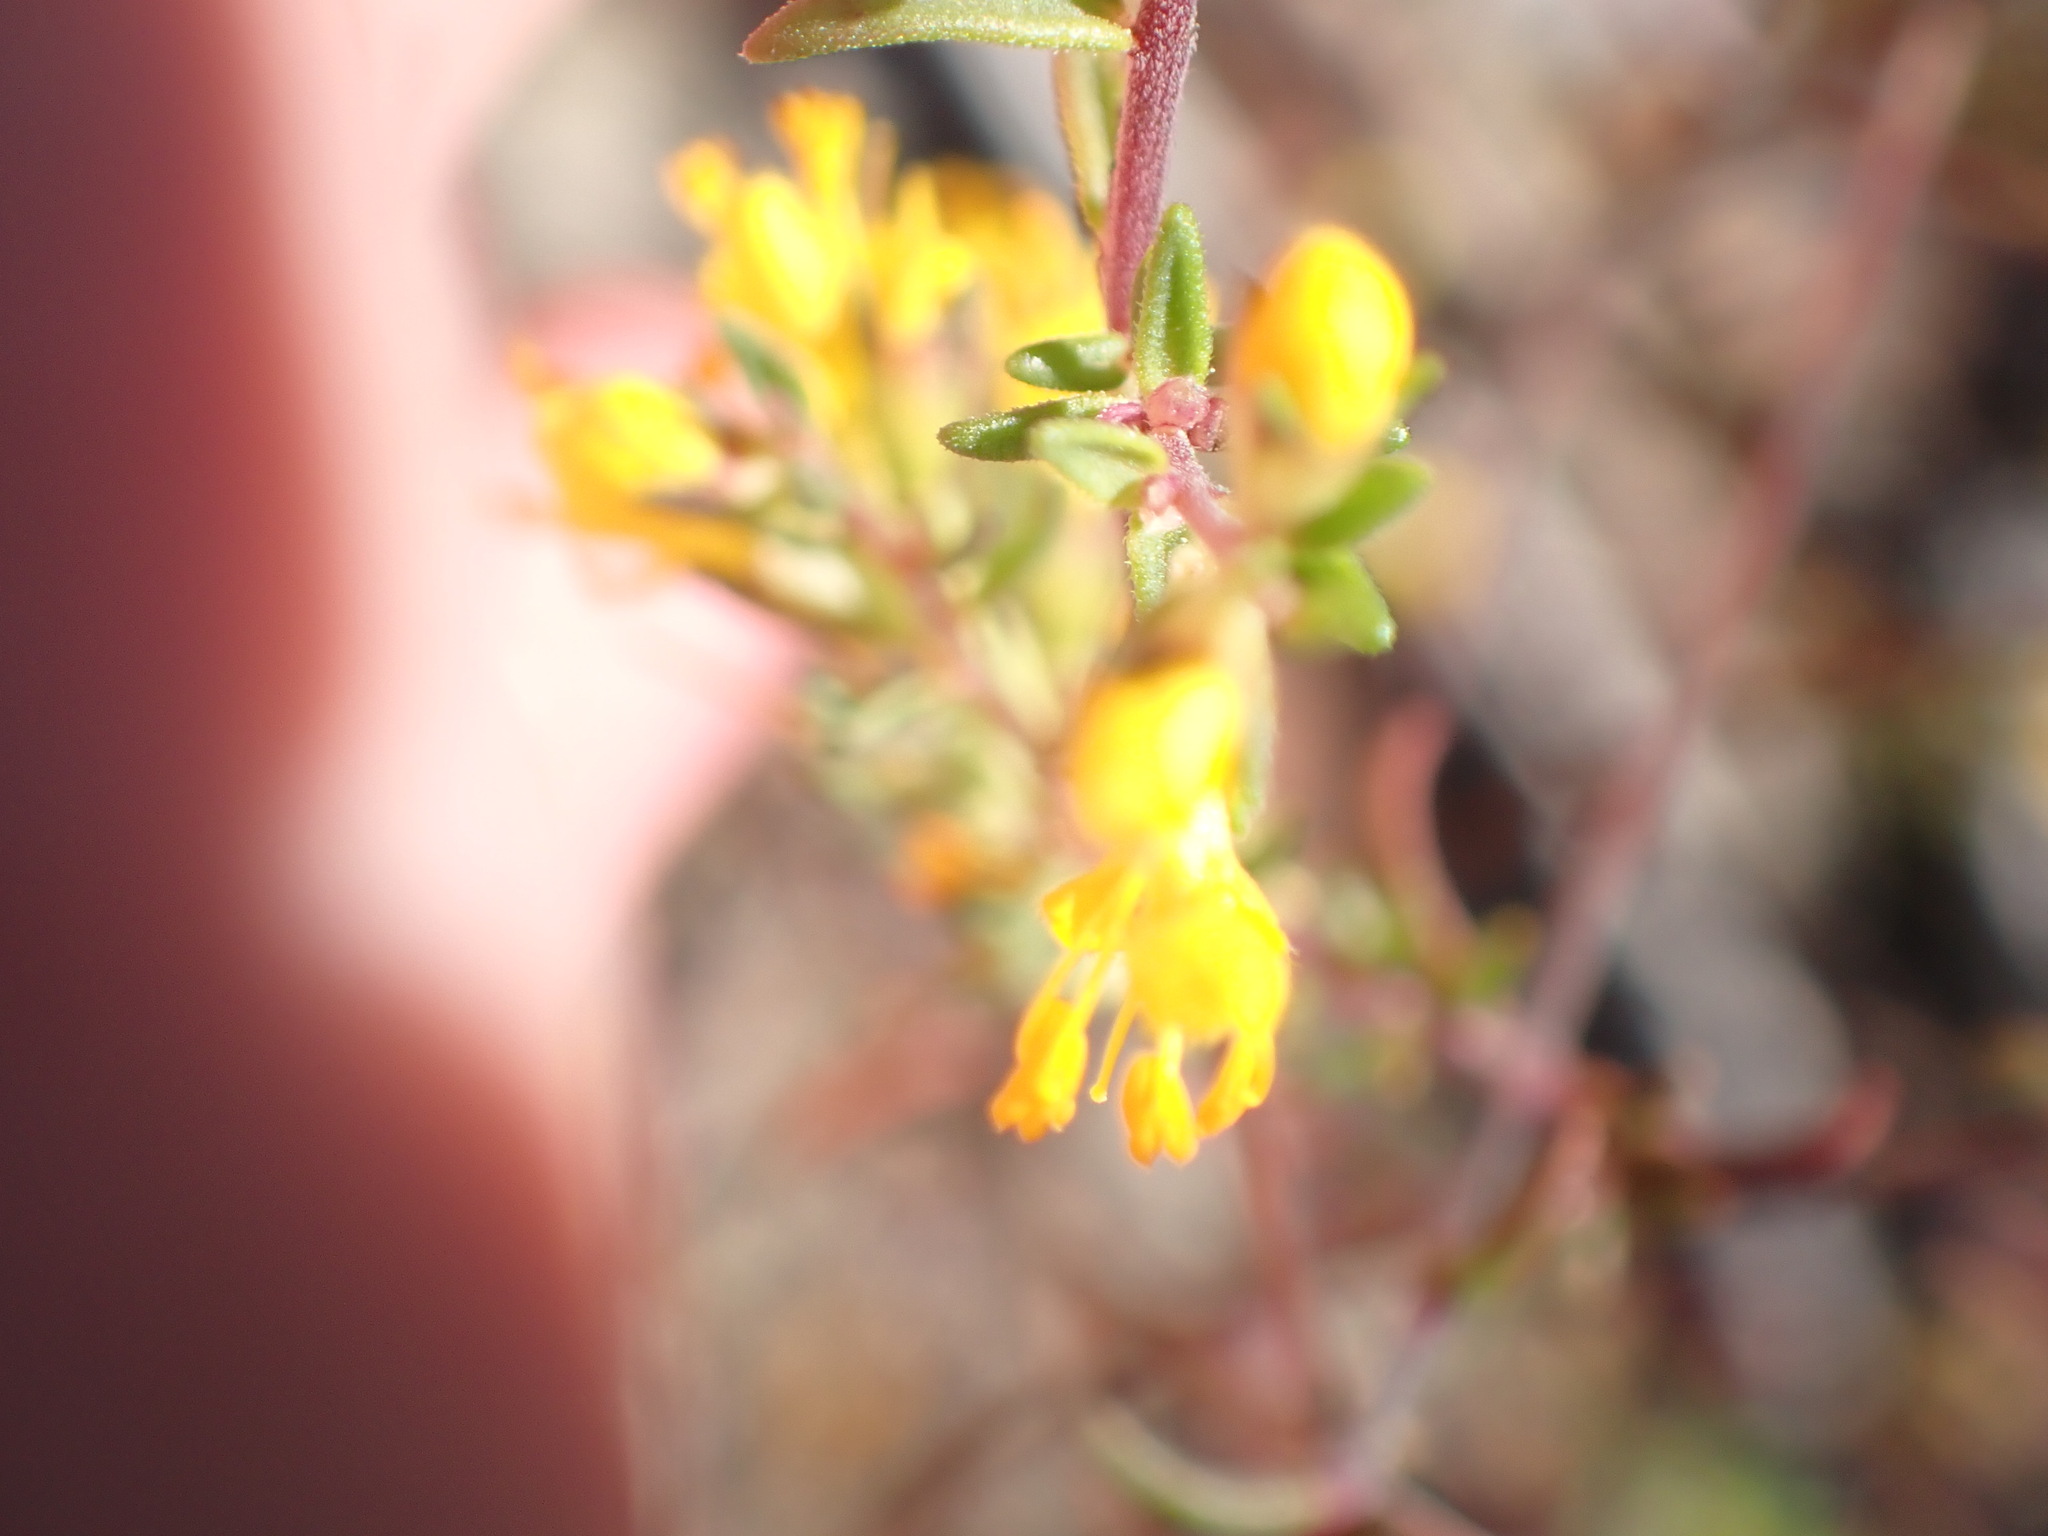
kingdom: Plantae
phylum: Tracheophyta
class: Magnoliopsida
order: Lamiales
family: Orobanchaceae
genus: Odontites
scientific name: Odontites luteus
